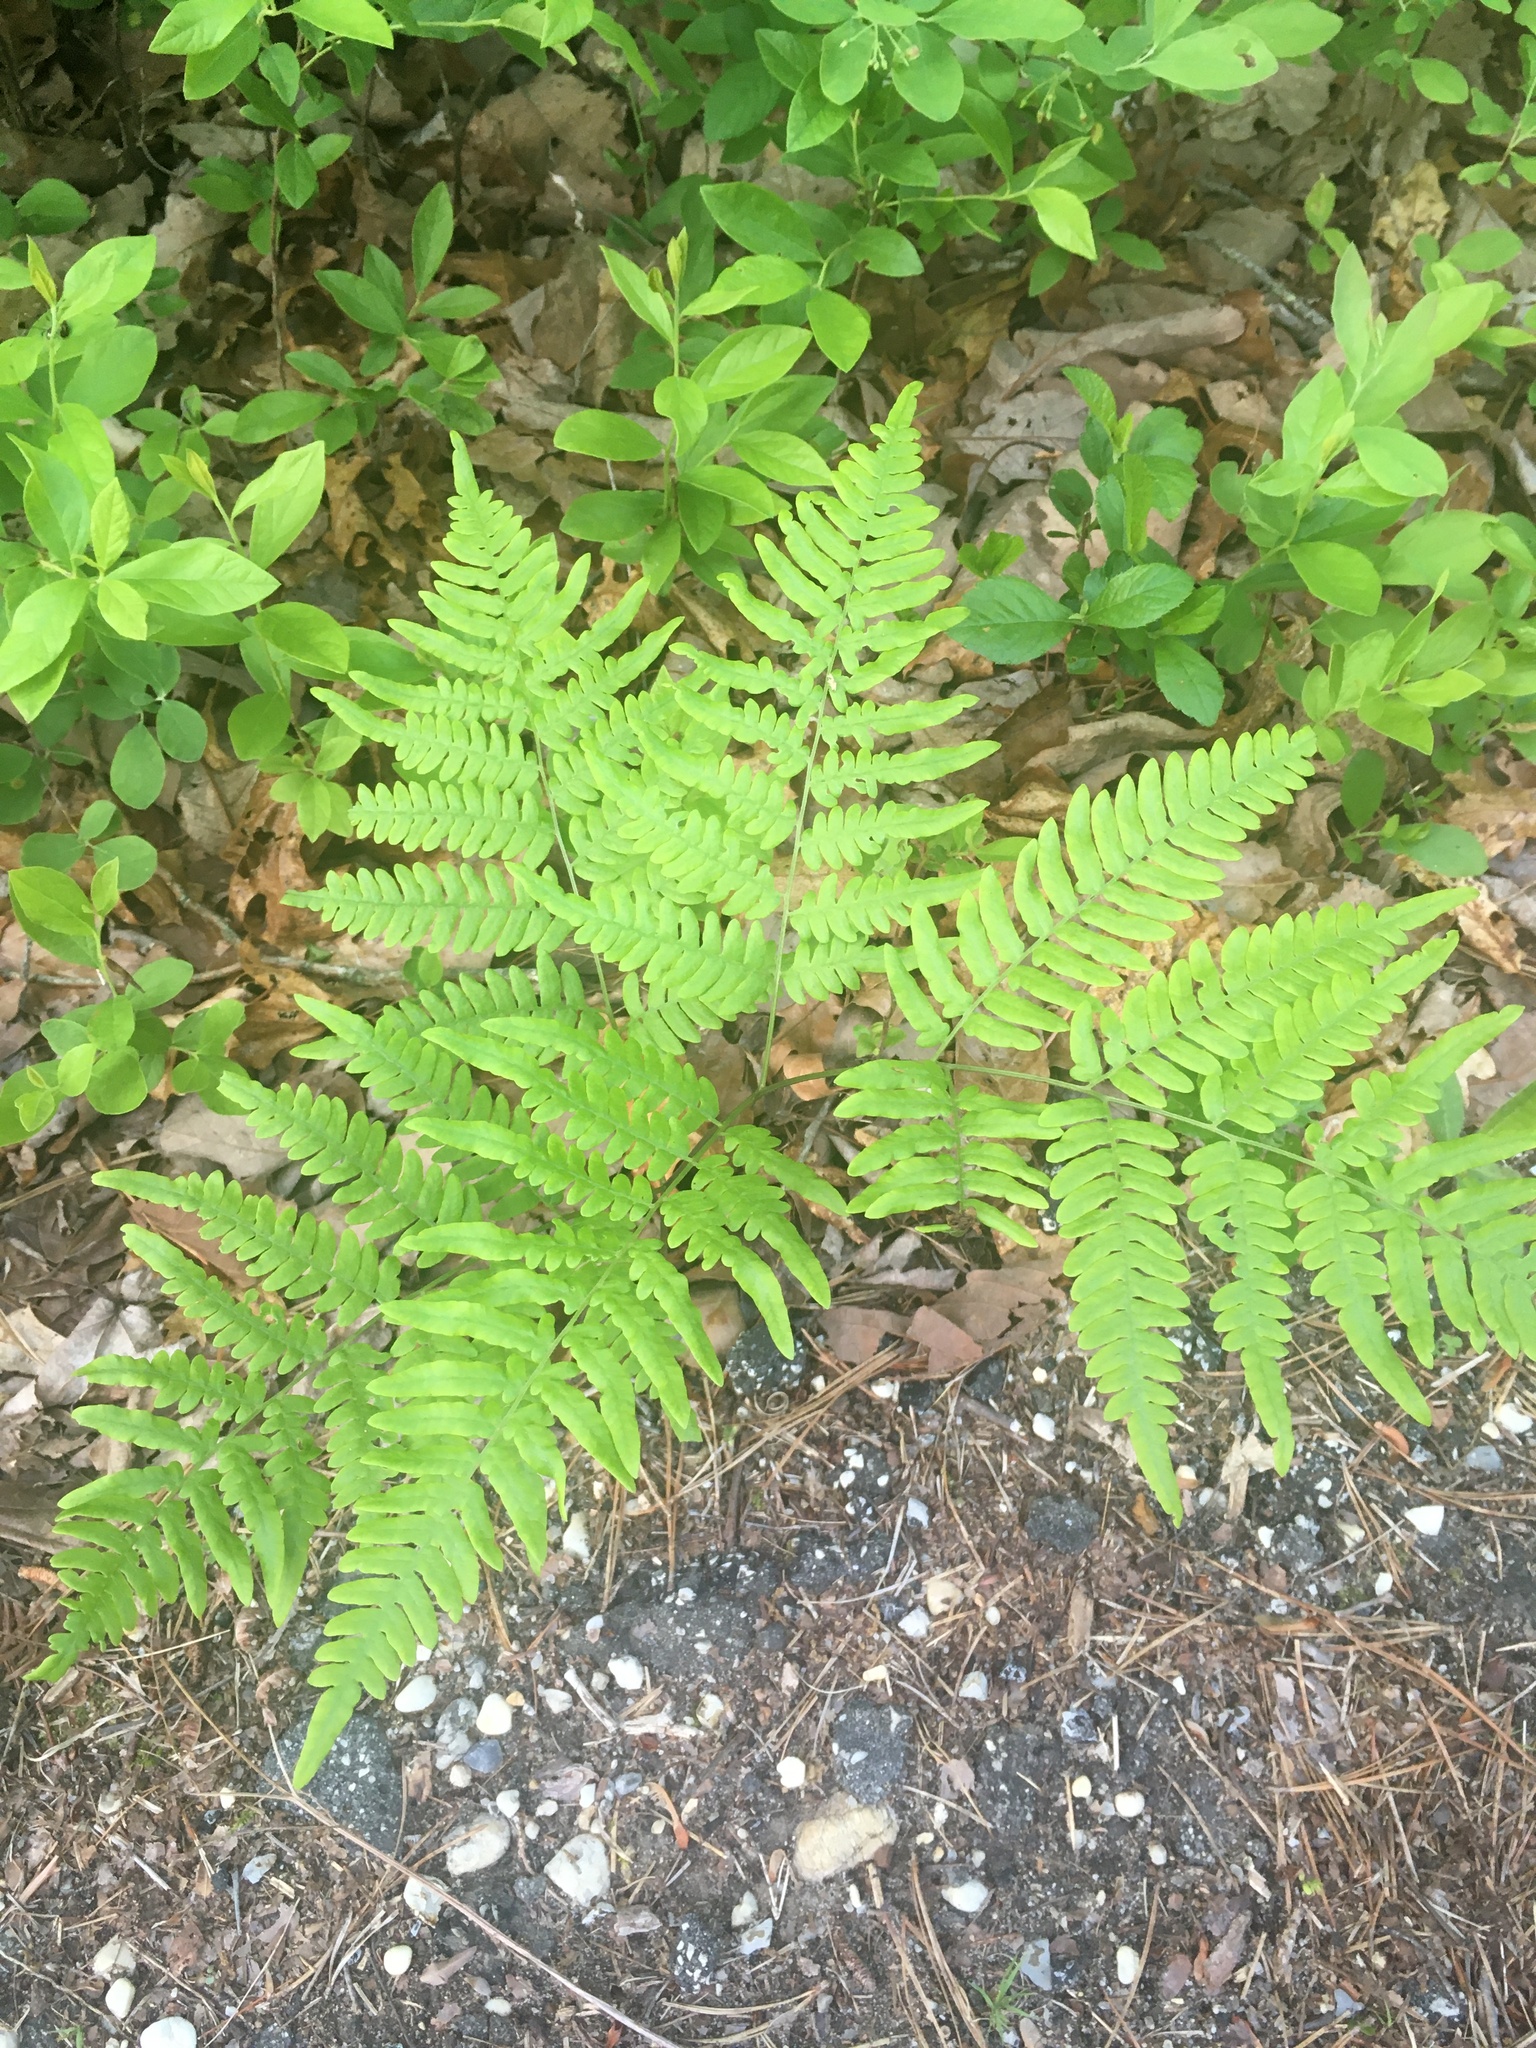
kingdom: Plantae
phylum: Tracheophyta
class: Polypodiopsida
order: Polypodiales
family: Dennstaedtiaceae
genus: Pteridium
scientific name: Pteridium aquilinum
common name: Bracken
